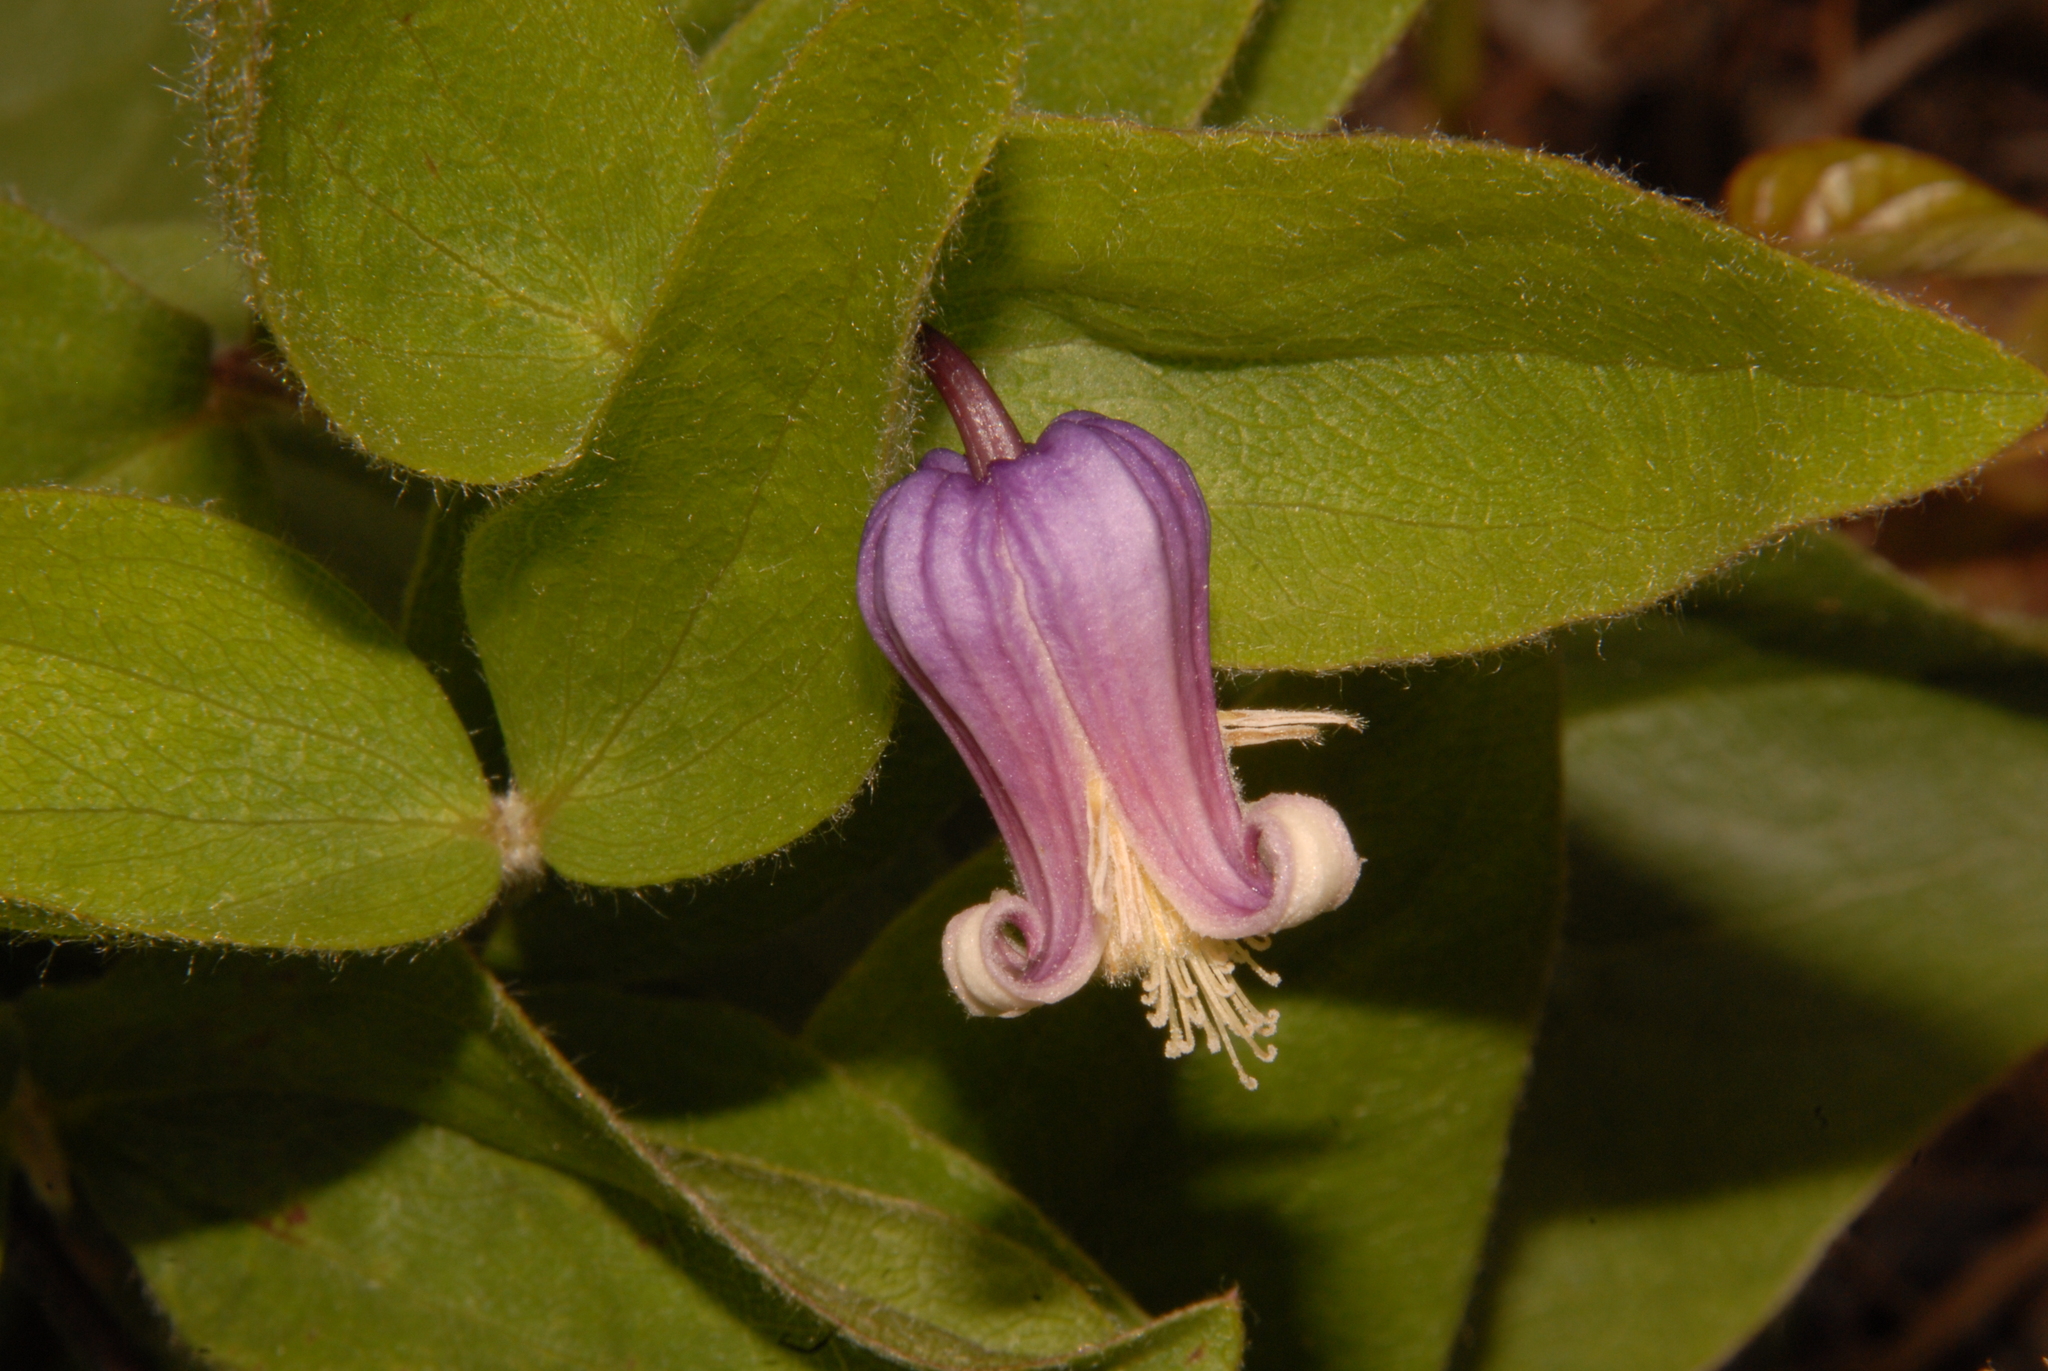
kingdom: Plantae
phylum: Tracheophyta
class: Magnoliopsida
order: Ranunculales
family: Ranunculaceae
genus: Clematis
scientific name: Clematis fremontii
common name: Fremont's clematis
